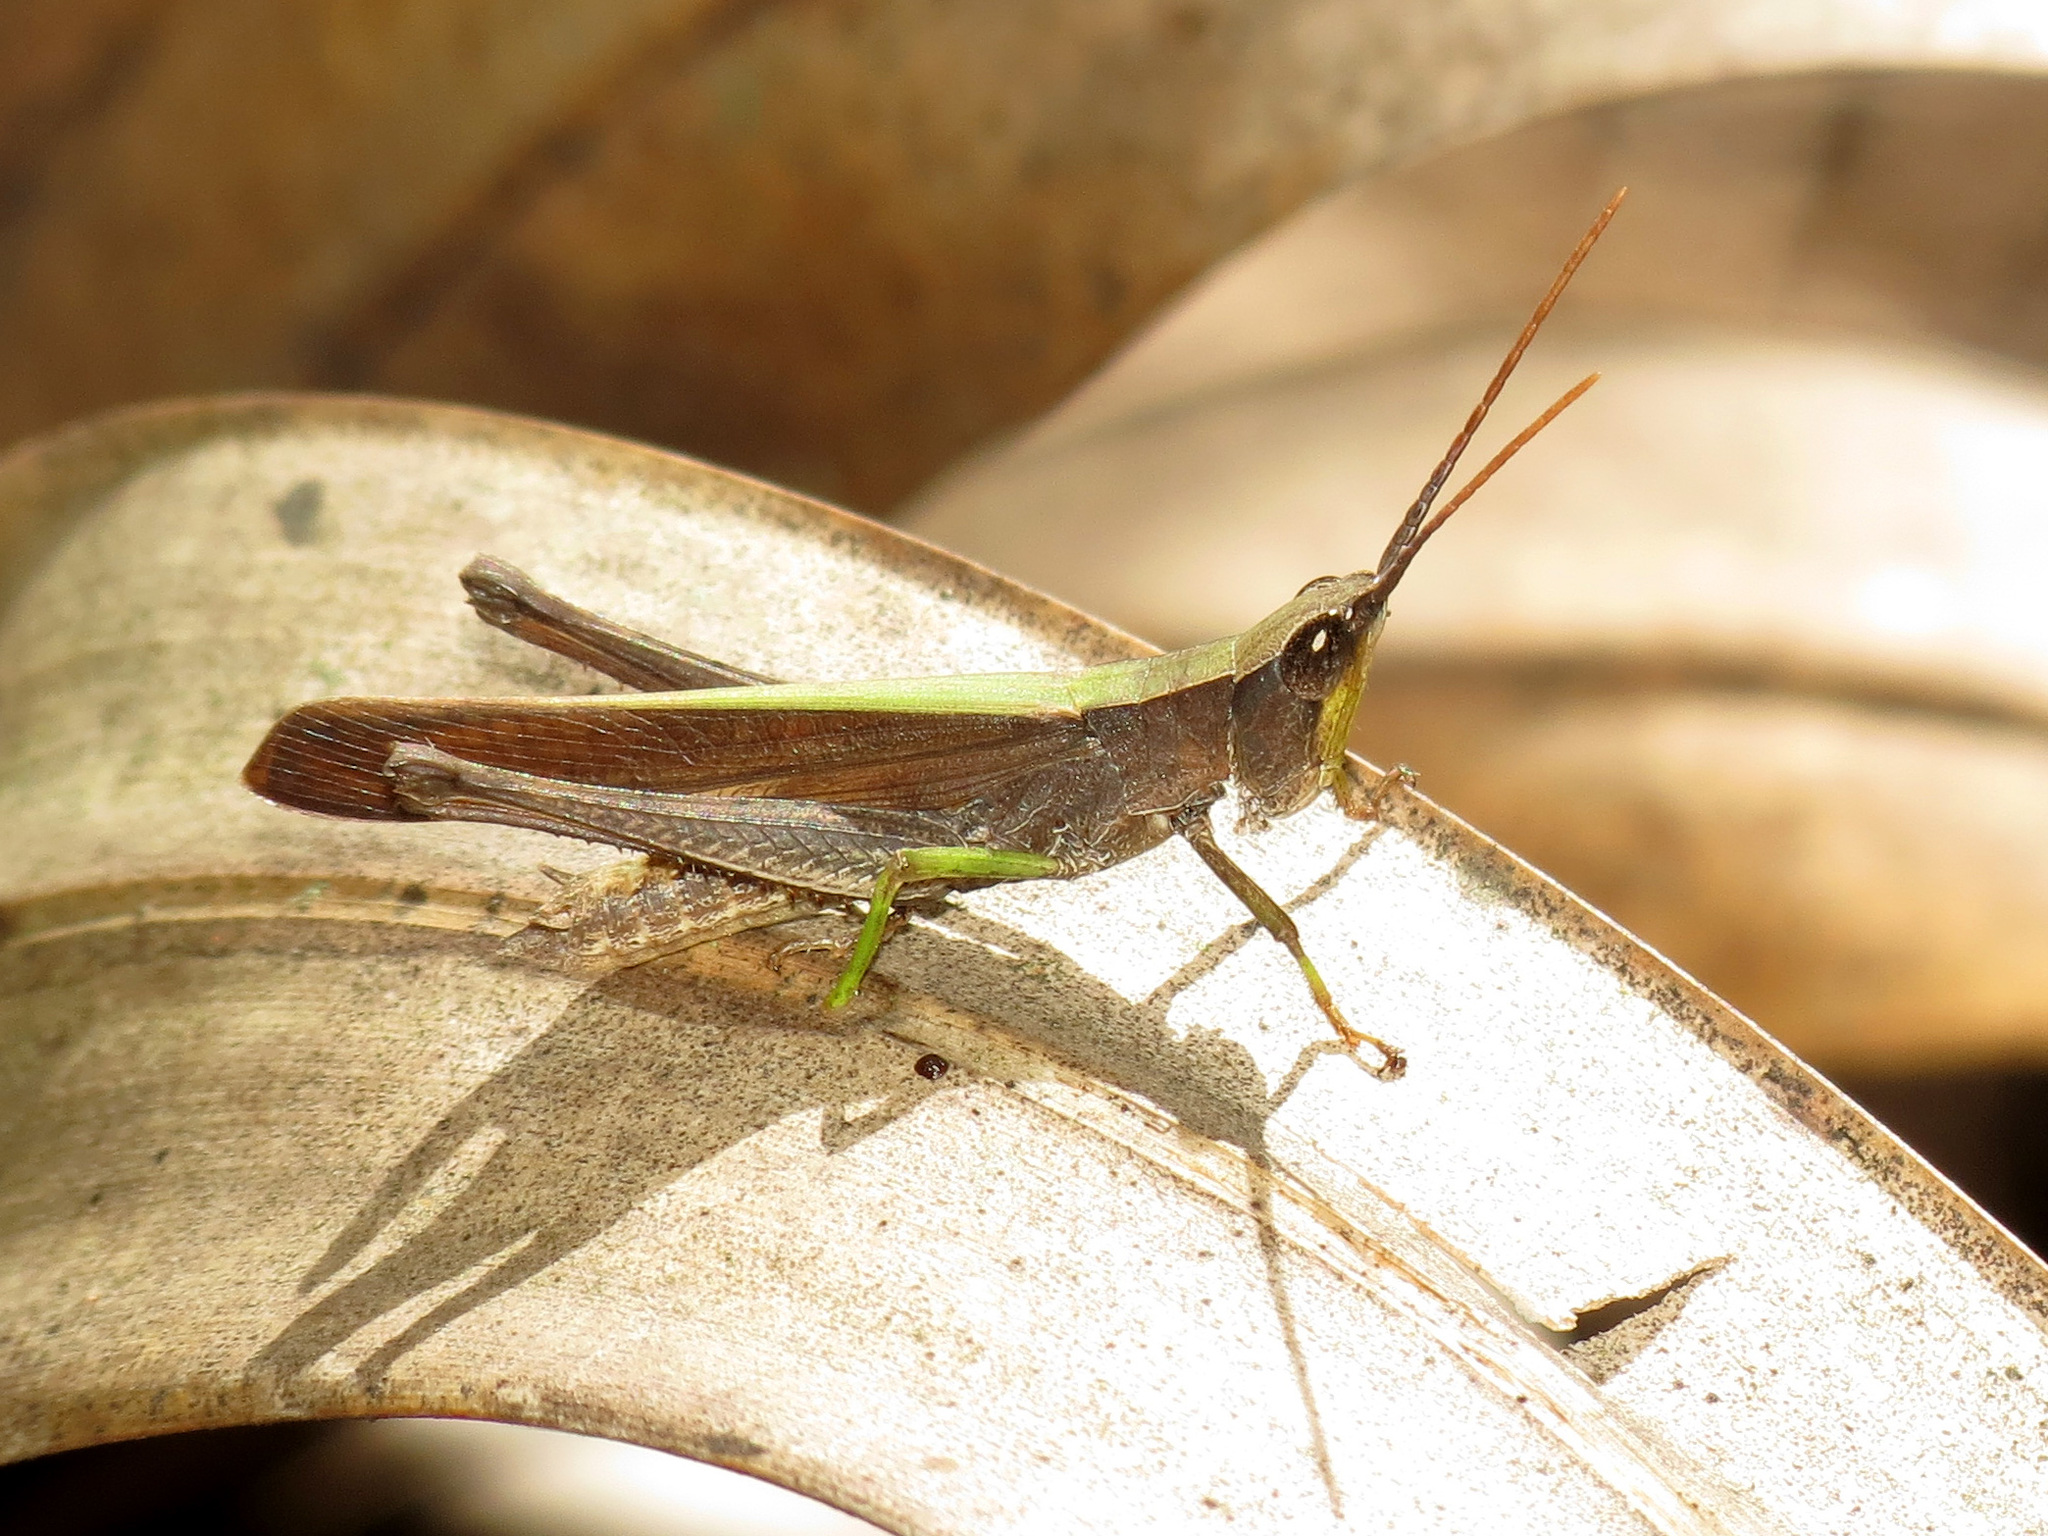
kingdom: Animalia
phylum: Arthropoda
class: Insecta
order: Orthoptera
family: Acrididae
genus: Metaleptea
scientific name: Metaleptea brevicornis
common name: Clipped-wing grasshopper
